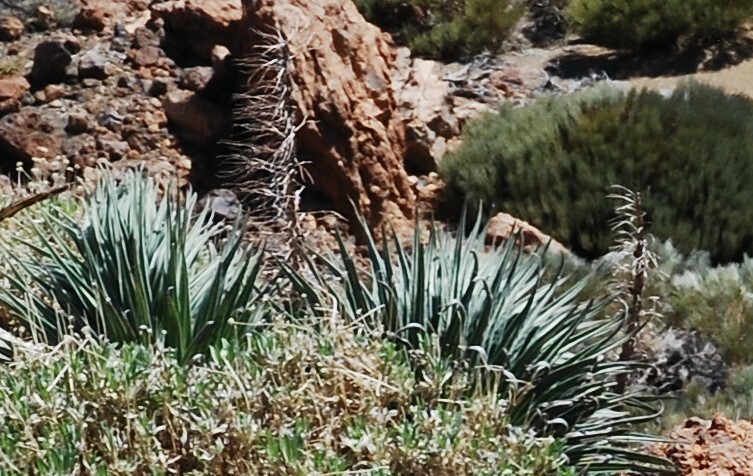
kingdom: Plantae
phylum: Tracheophyta
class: Magnoliopsida
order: Boraginales
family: Boraginaceae
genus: Echium
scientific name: Echium wildpretii
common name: Tower-of-jewels
